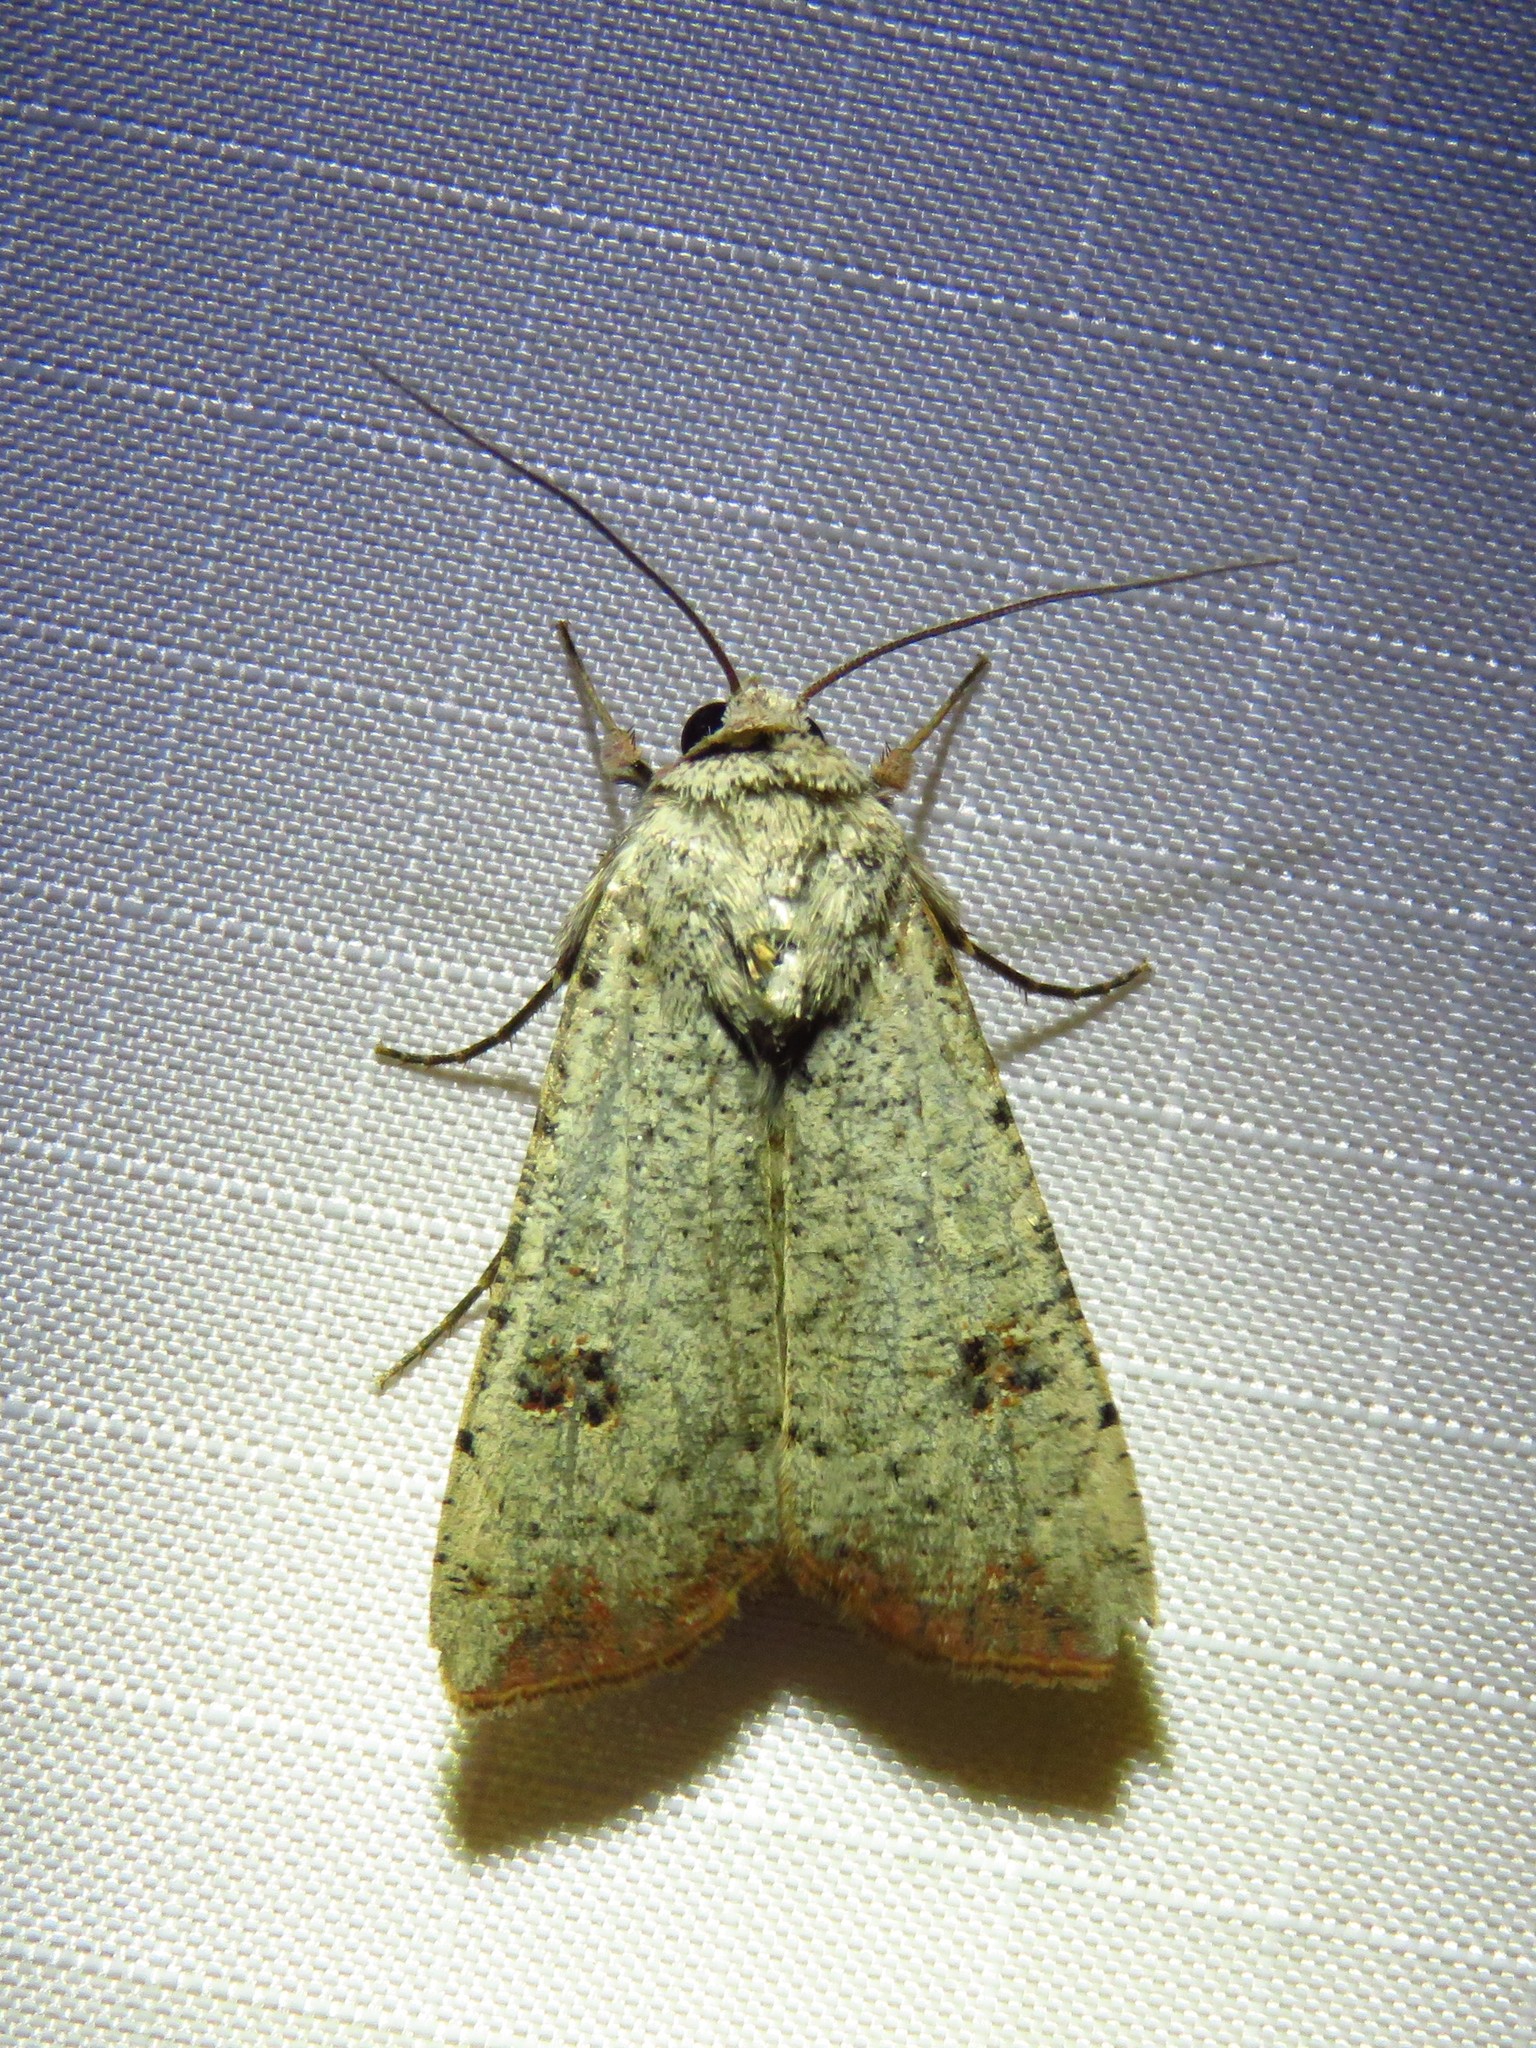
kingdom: Animalia
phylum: Arthropoda
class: Insecta
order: Lepidoptera
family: Noctuidae
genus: Anicla
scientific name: Anicla infecta
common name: Green cutworm
